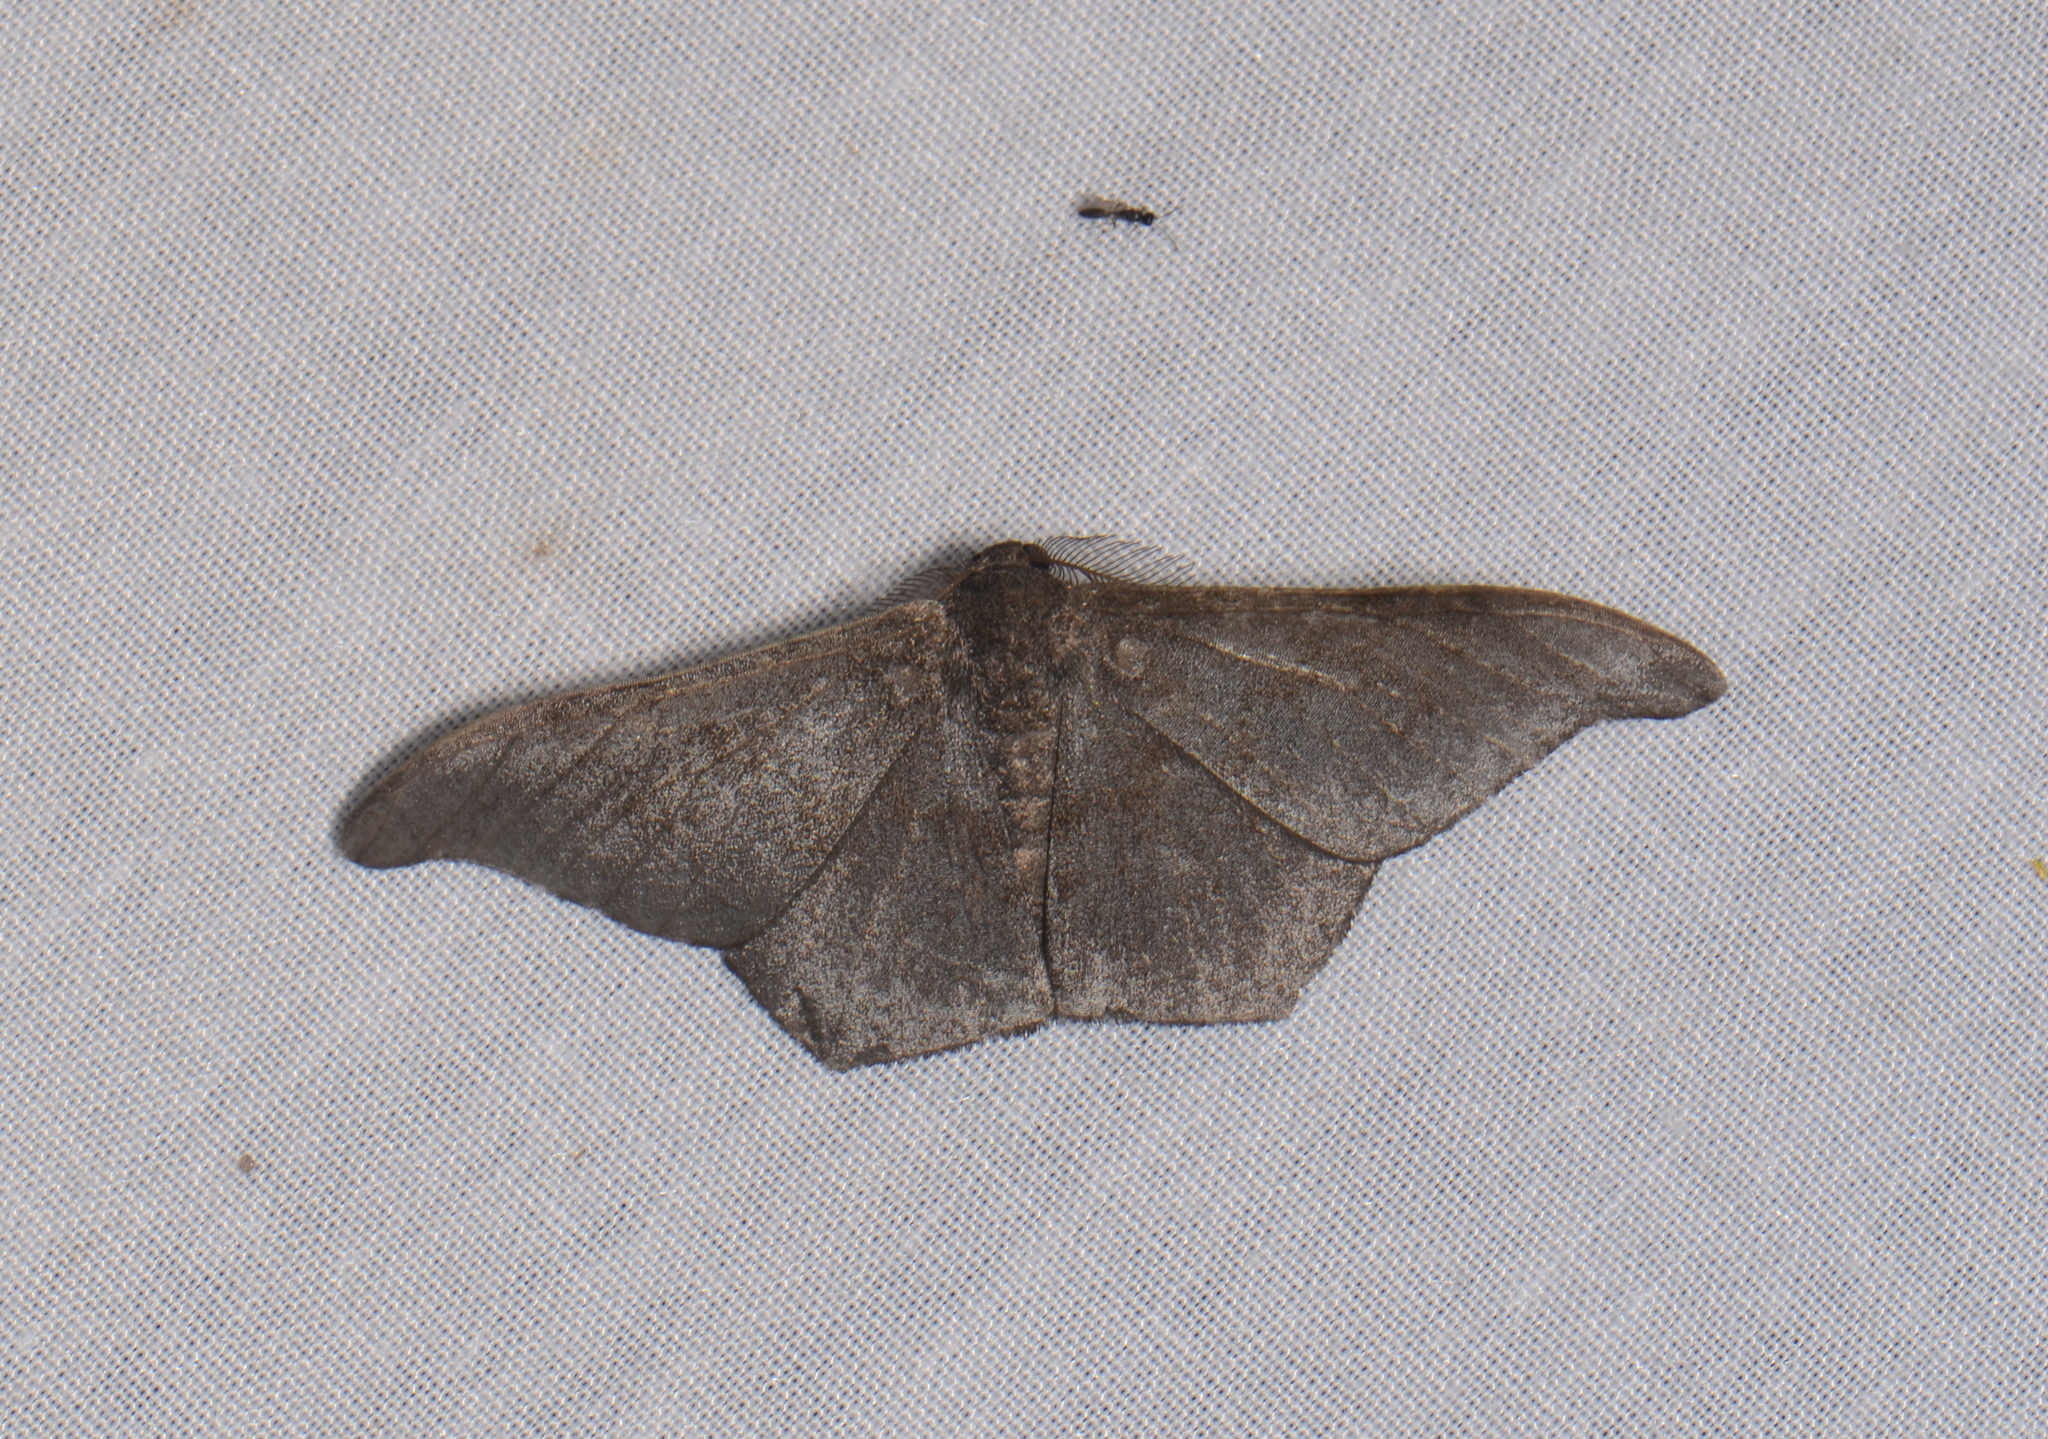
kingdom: Animalia
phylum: Arthropoda
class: Insecta
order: Lepidoptera
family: Geometridae
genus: Hyposidra
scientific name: Hyposidra talaca
